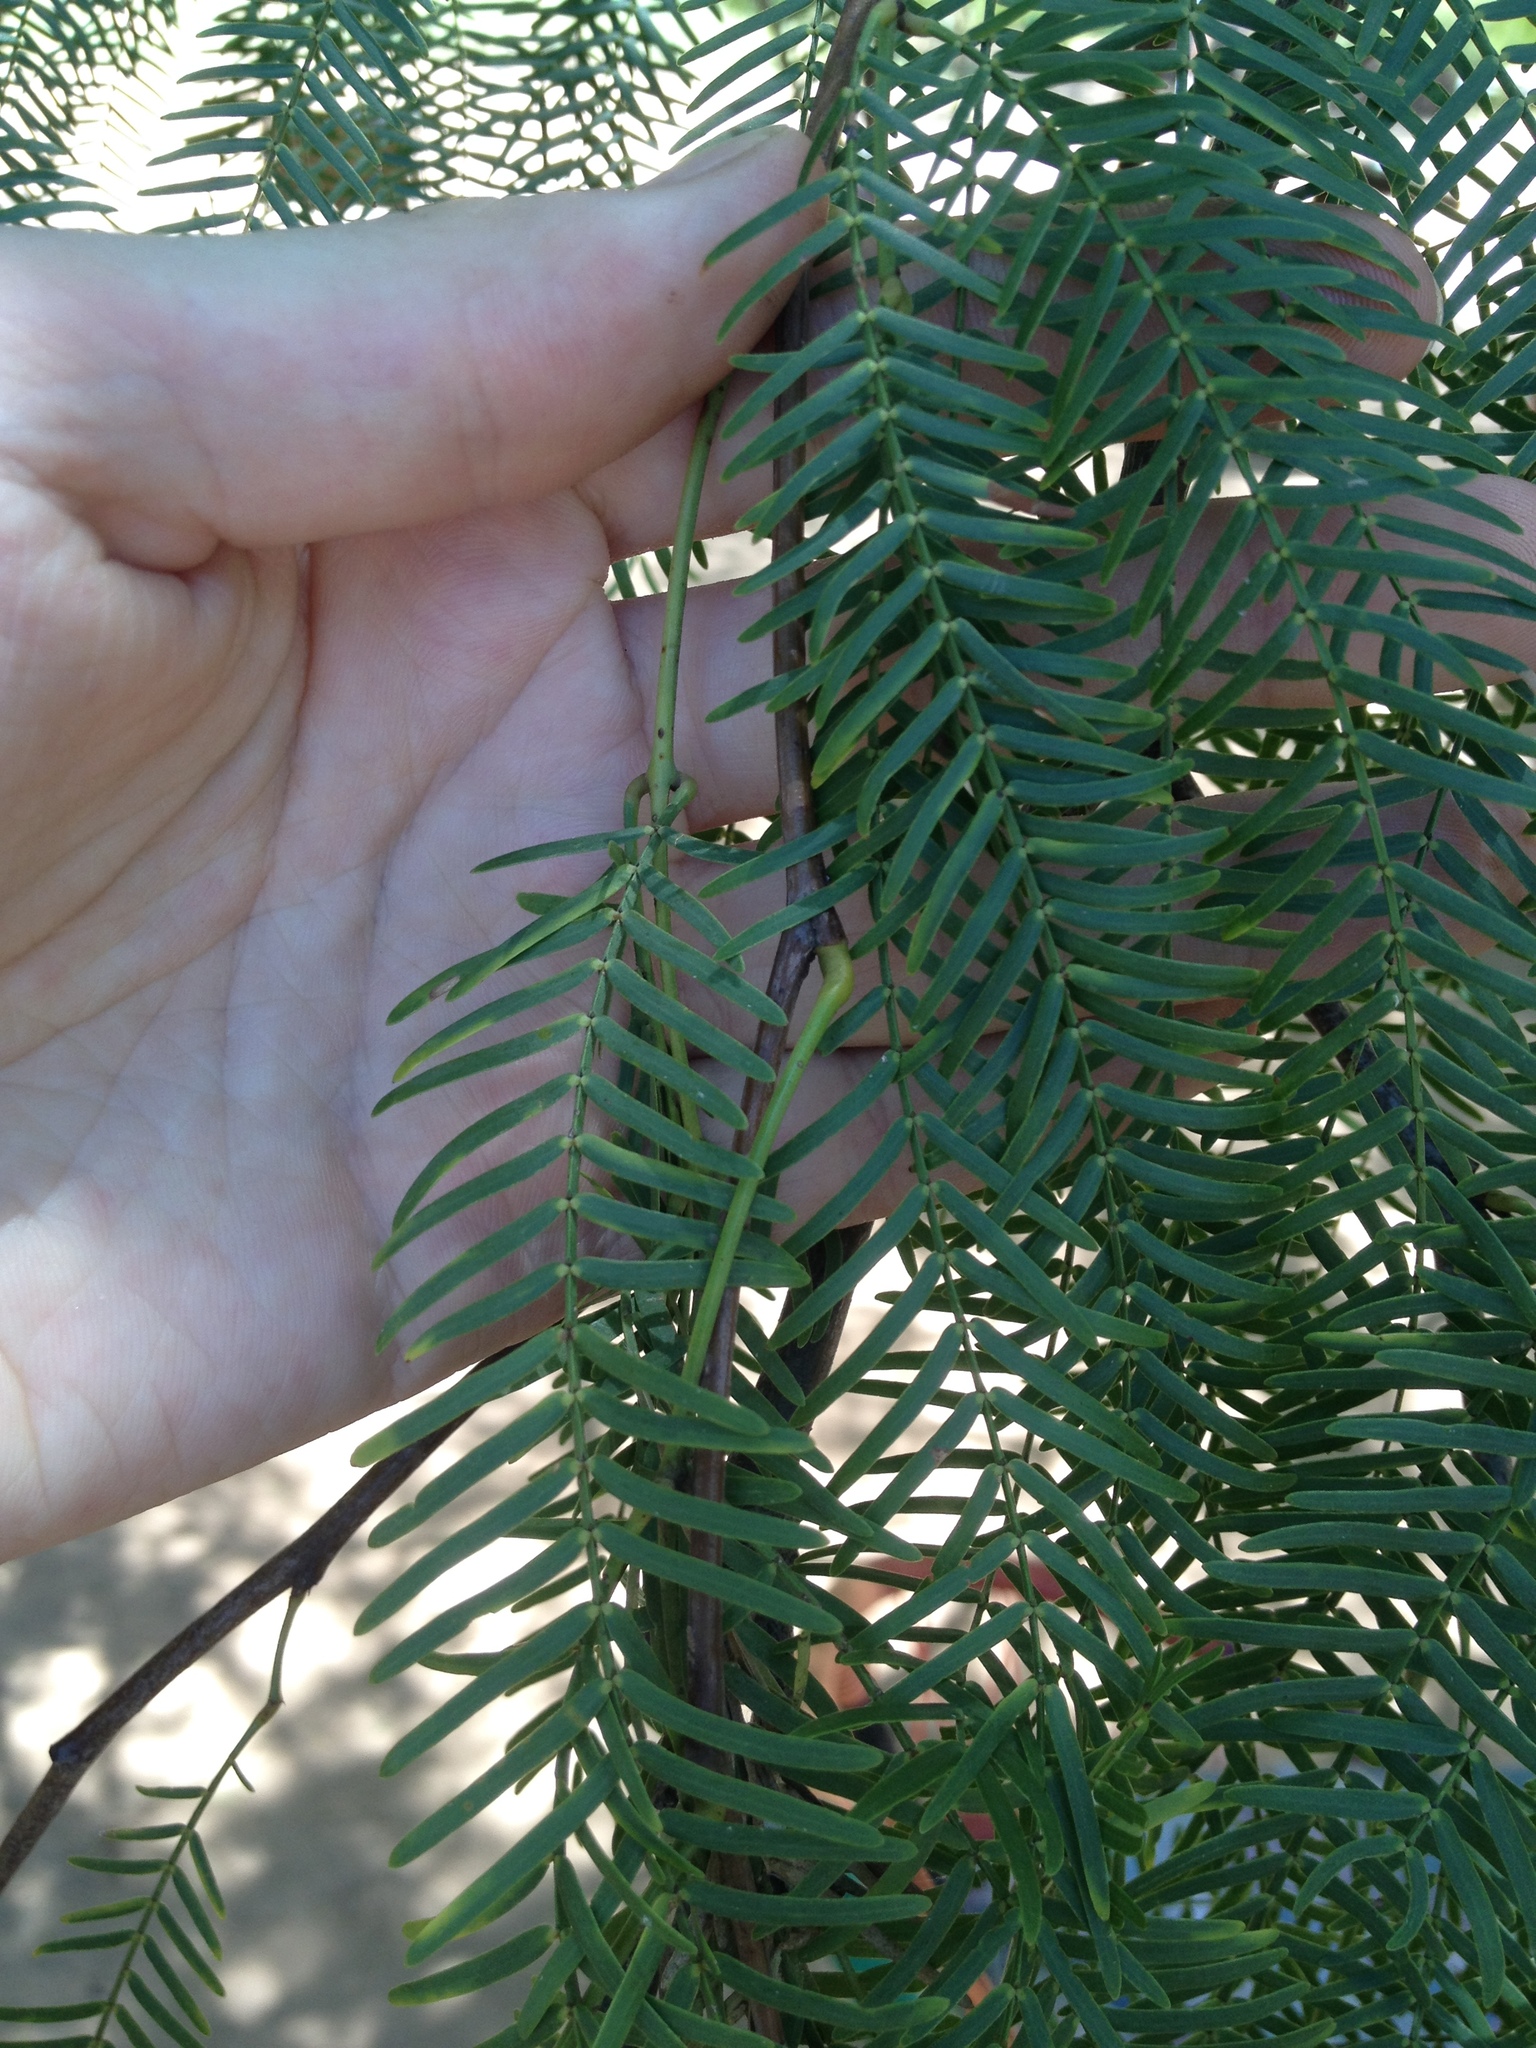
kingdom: Plantae
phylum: Tracheophyta
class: Magnoliopsida
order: Fabales
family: Fabaceae
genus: Prosopis
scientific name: Prosopis chilensis
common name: Chilean algarrobo
